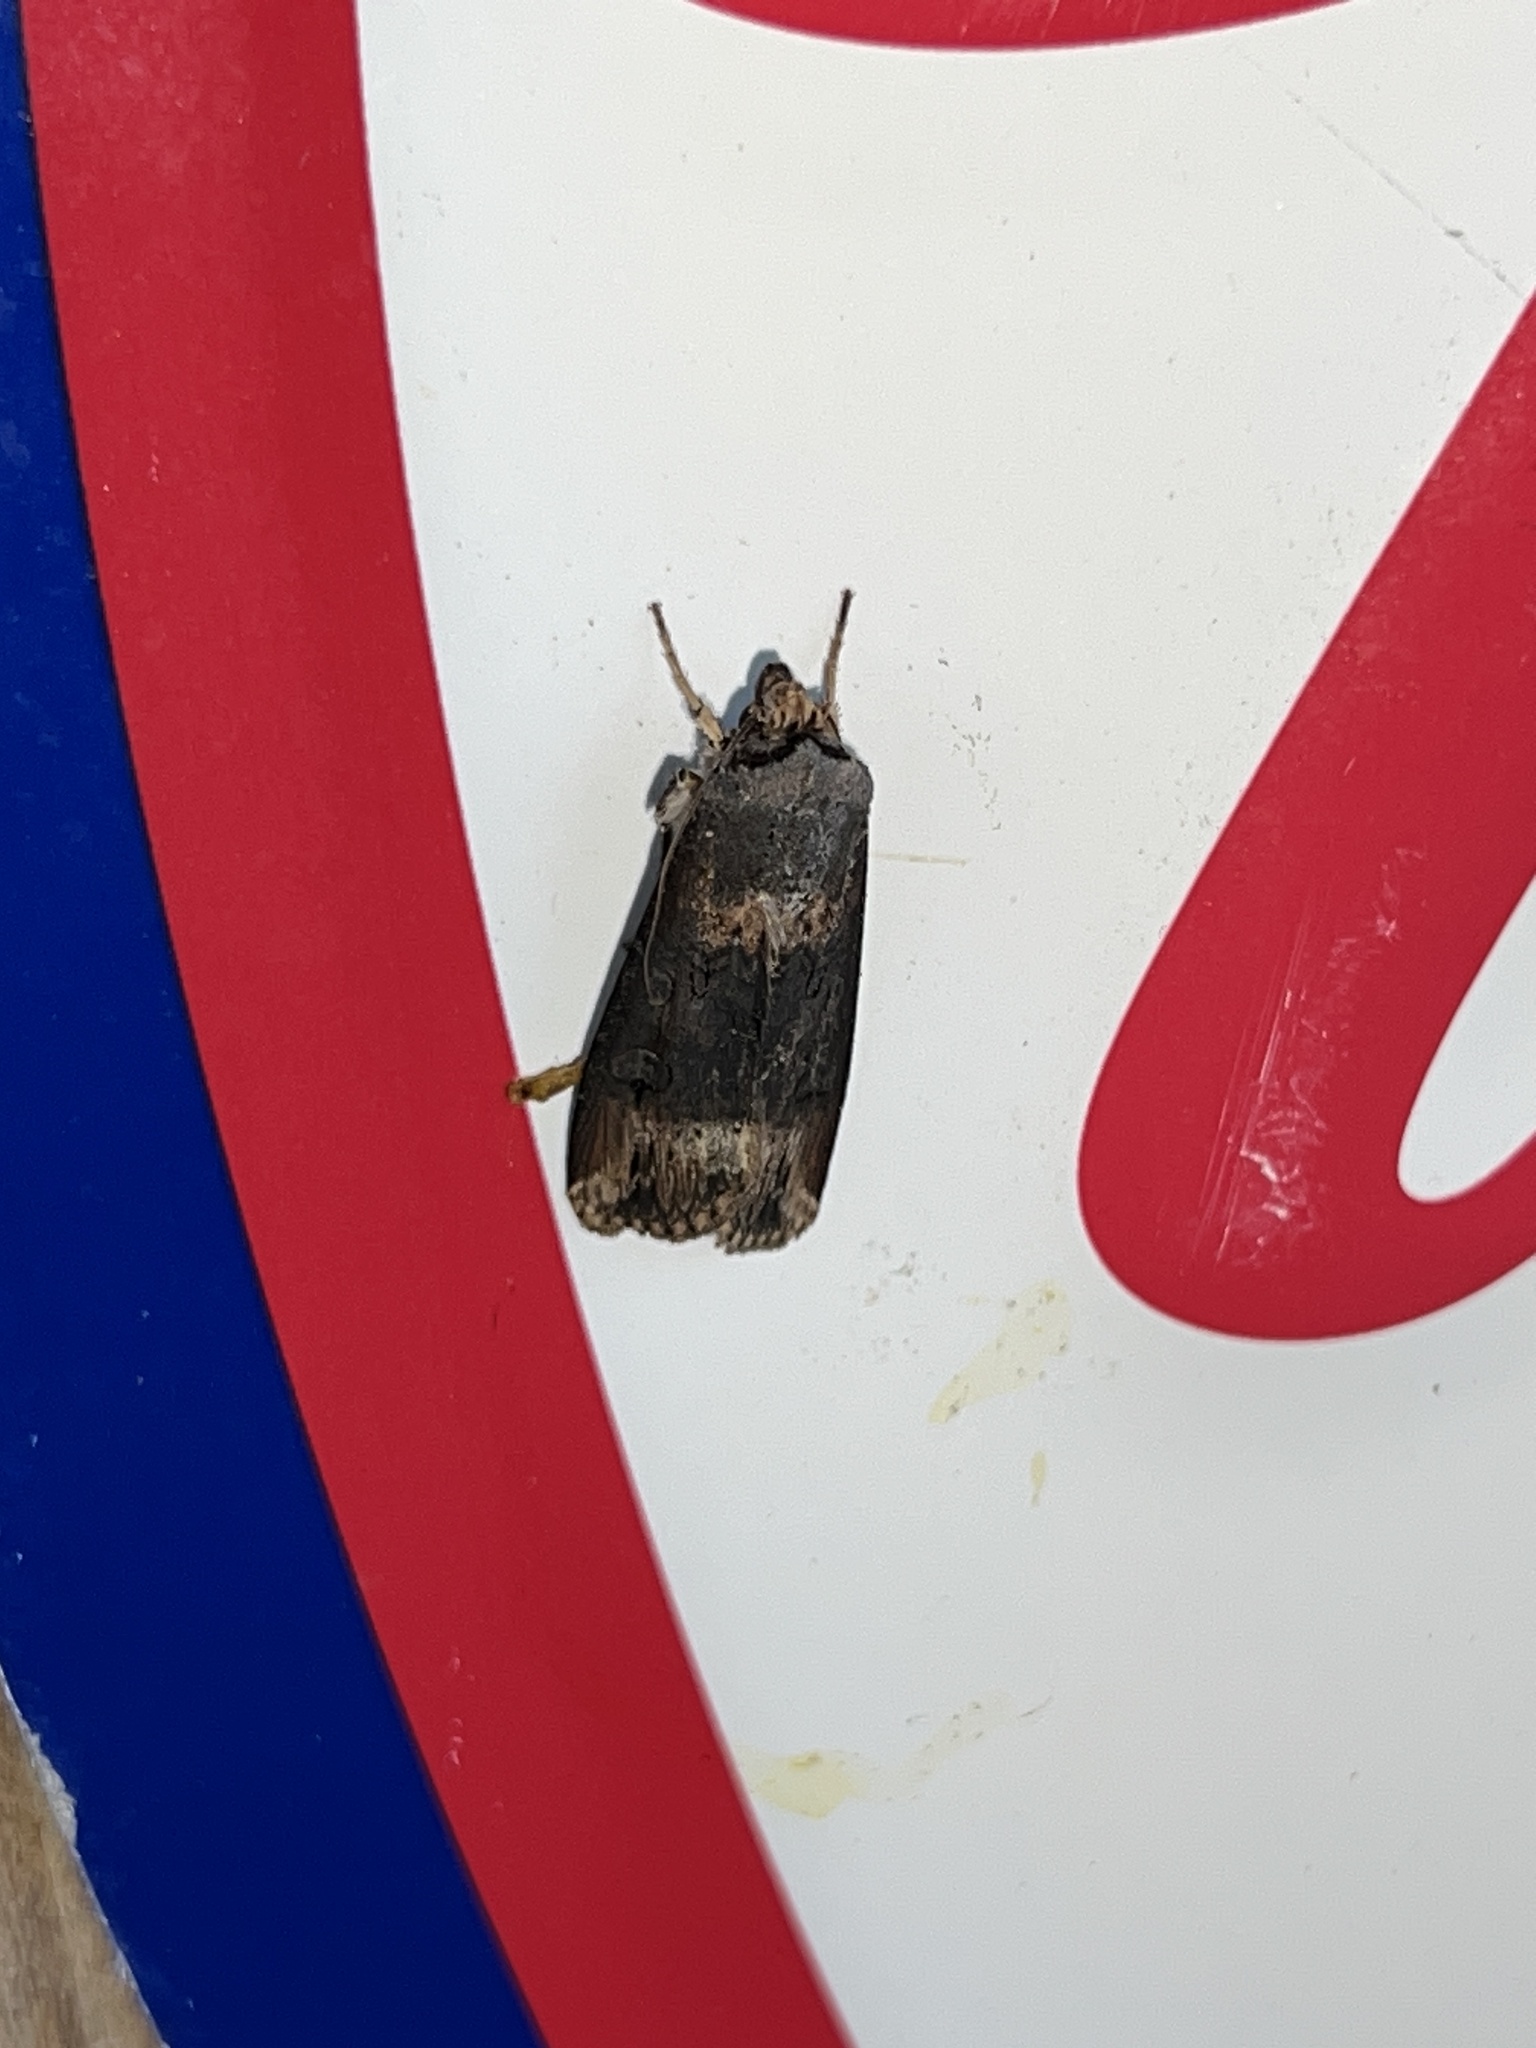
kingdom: Animalia
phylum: Arthropoda
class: Insecta
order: Lepidoptera
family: Noctuidae
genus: Agrotis
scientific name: Agrotis ipsilon
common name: Dark sword-grass
